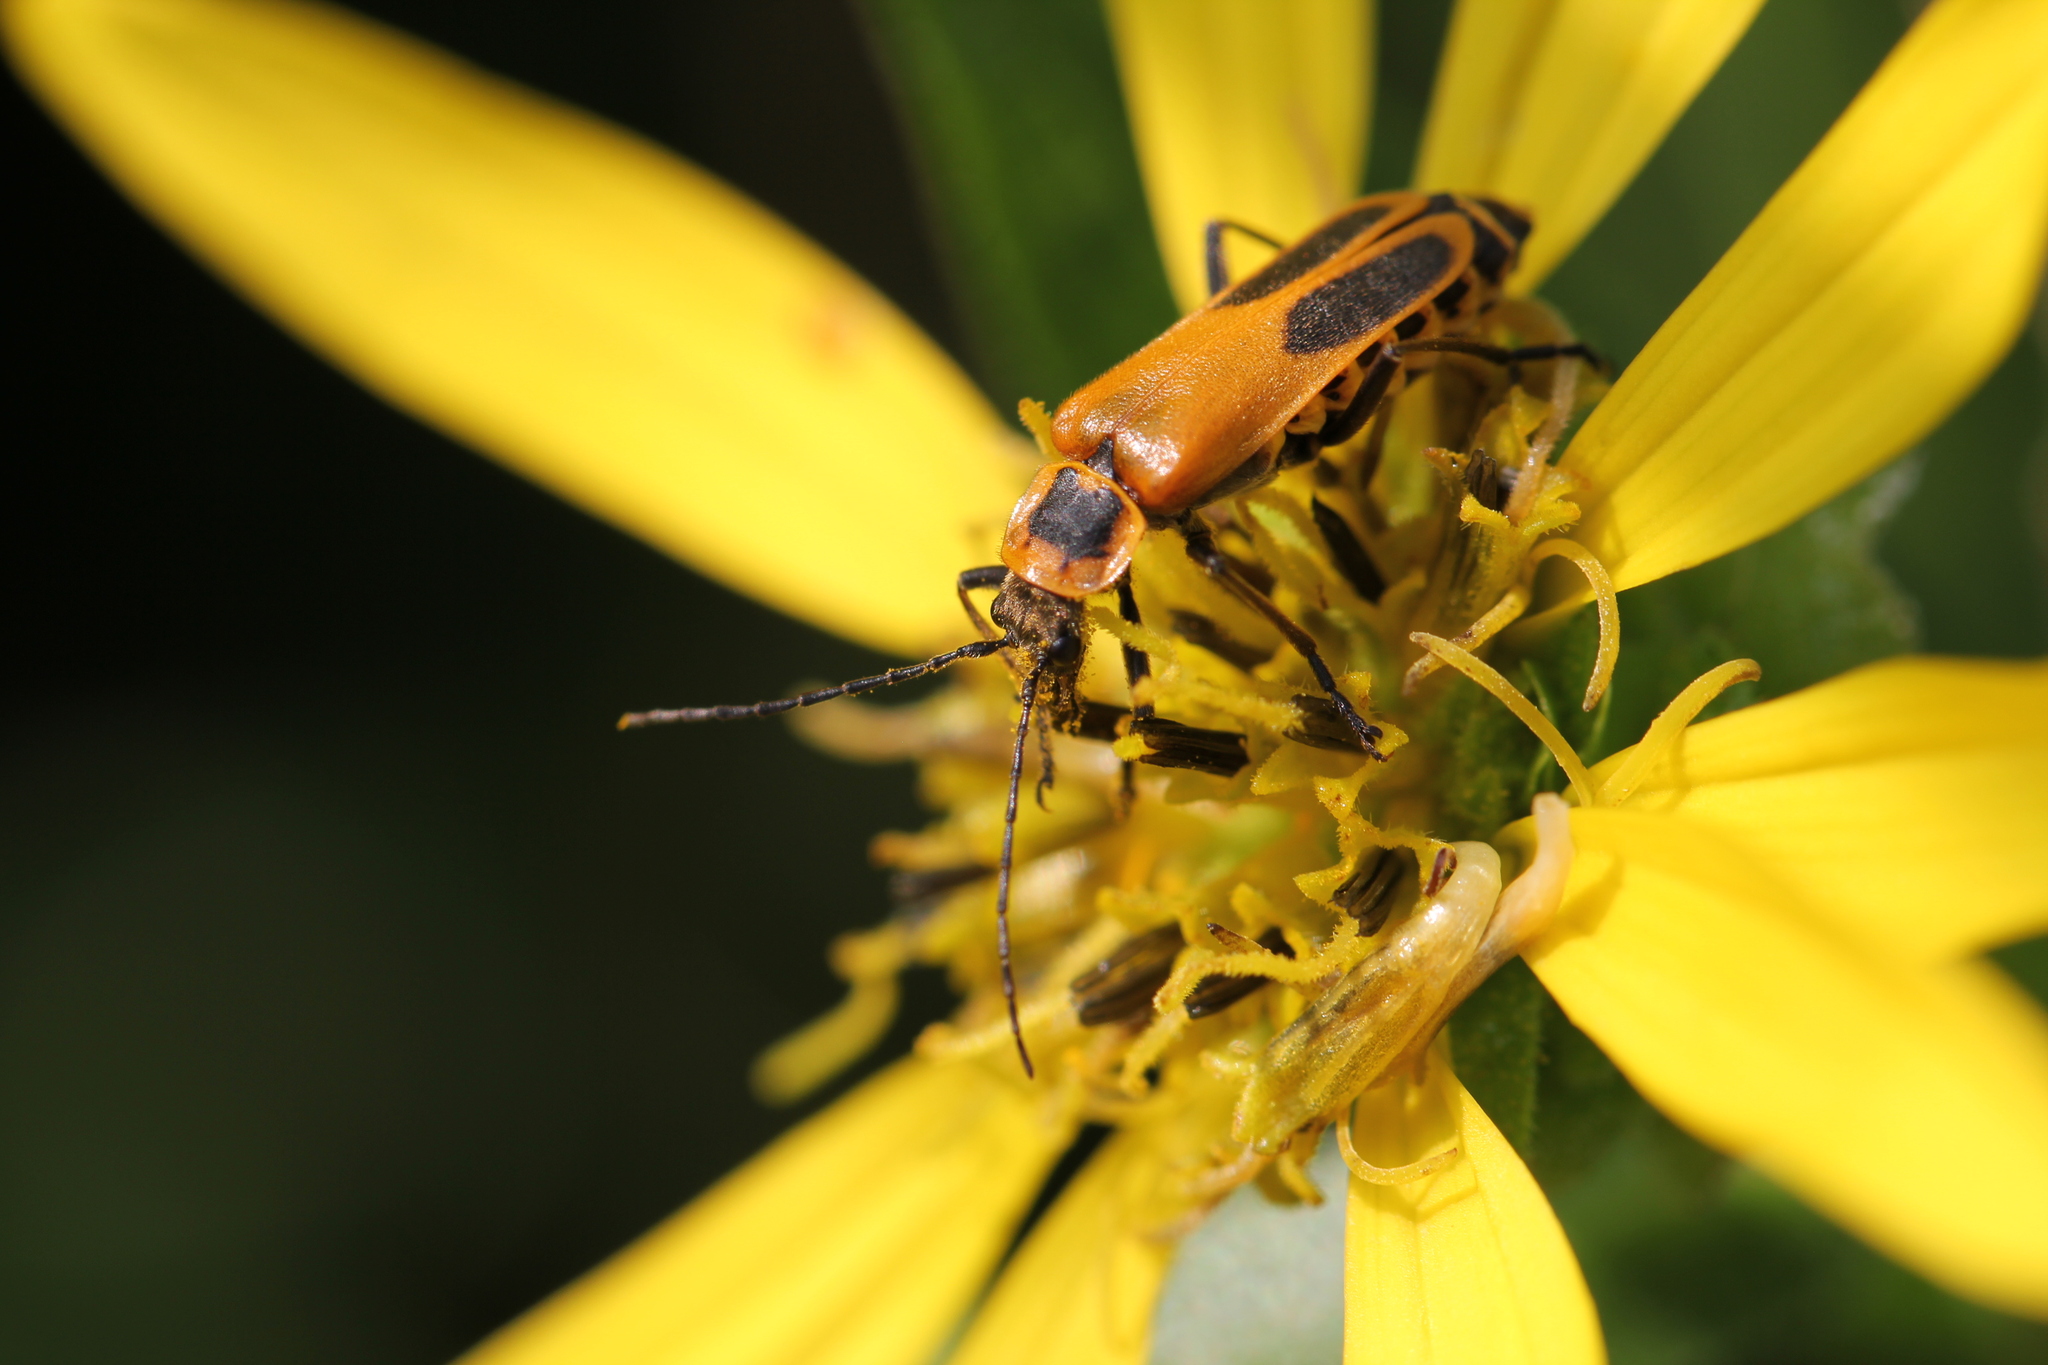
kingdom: Animalia
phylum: Arthropoda
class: Insecta
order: Coleoptera
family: Cantharidae
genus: Chauliognathus
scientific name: Chauliognathus pensylvanicus
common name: Goldenrod soldier beetle
